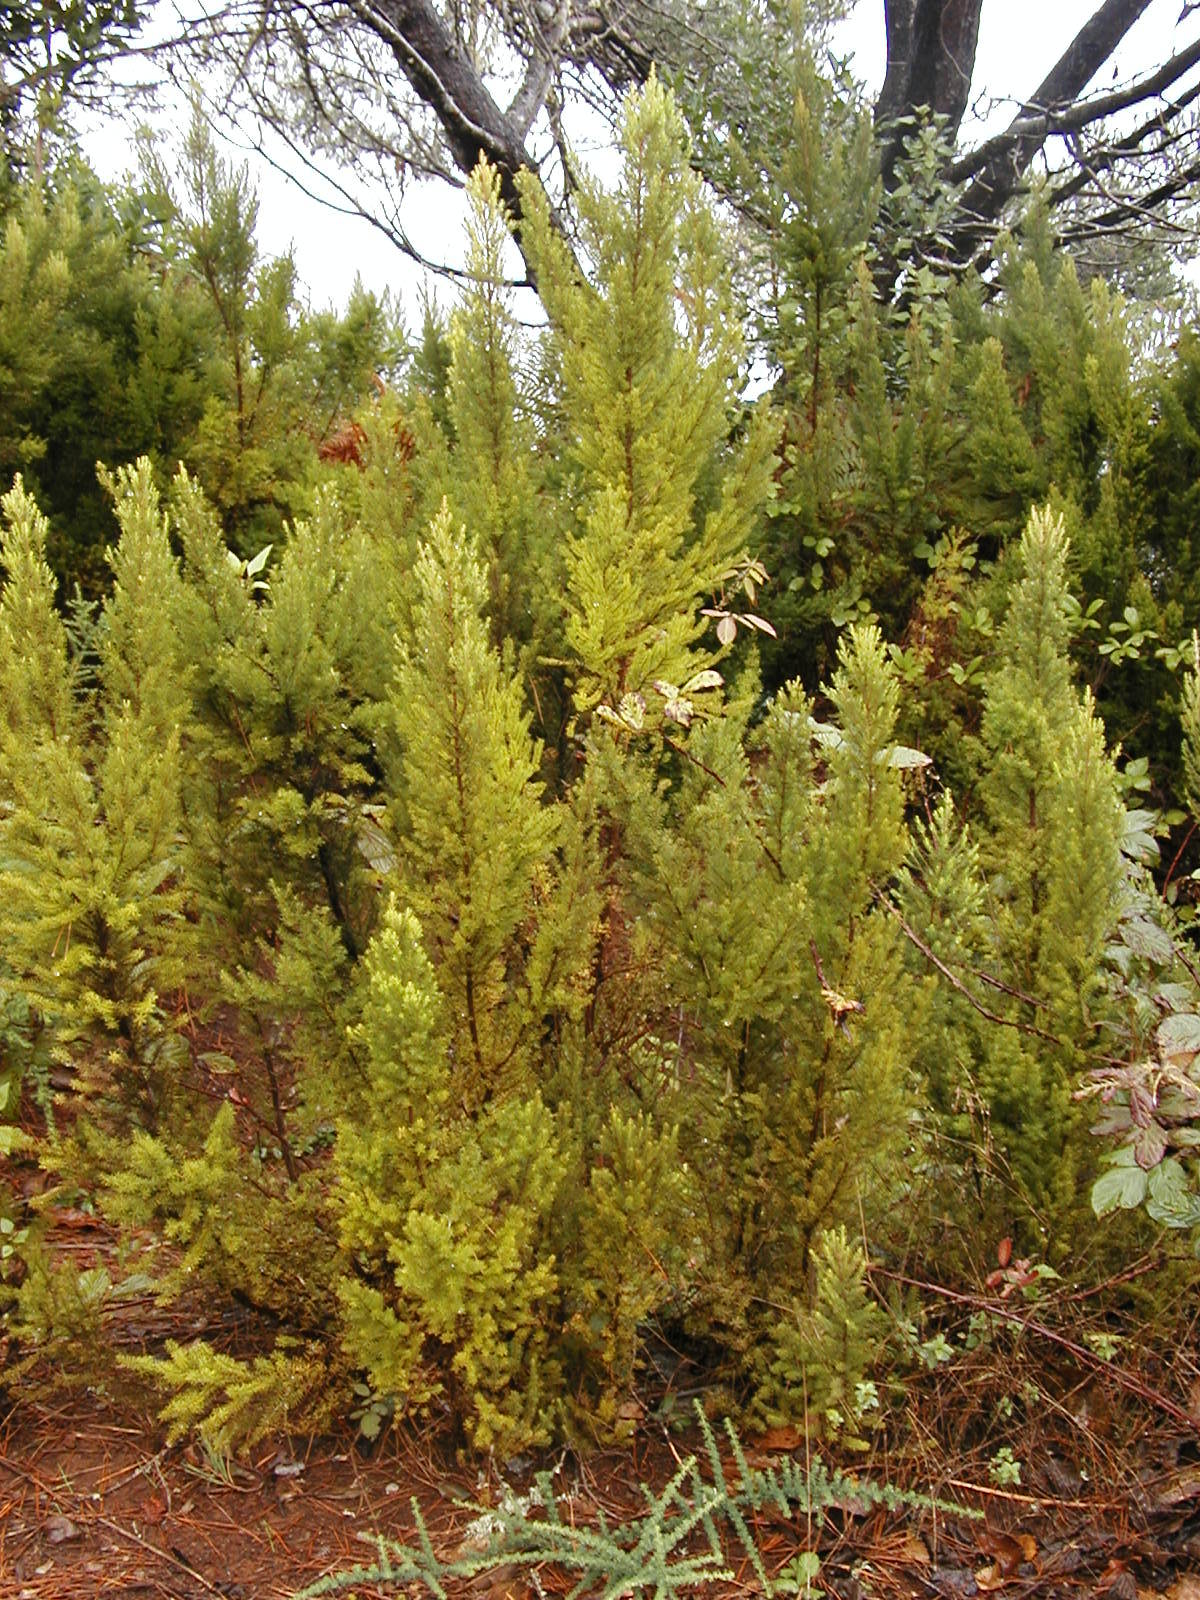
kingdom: Plantae
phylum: Tracheophyta
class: Magnoliopsida
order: Ericales
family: Ericaceae
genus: Erica
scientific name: Erica canariensis
